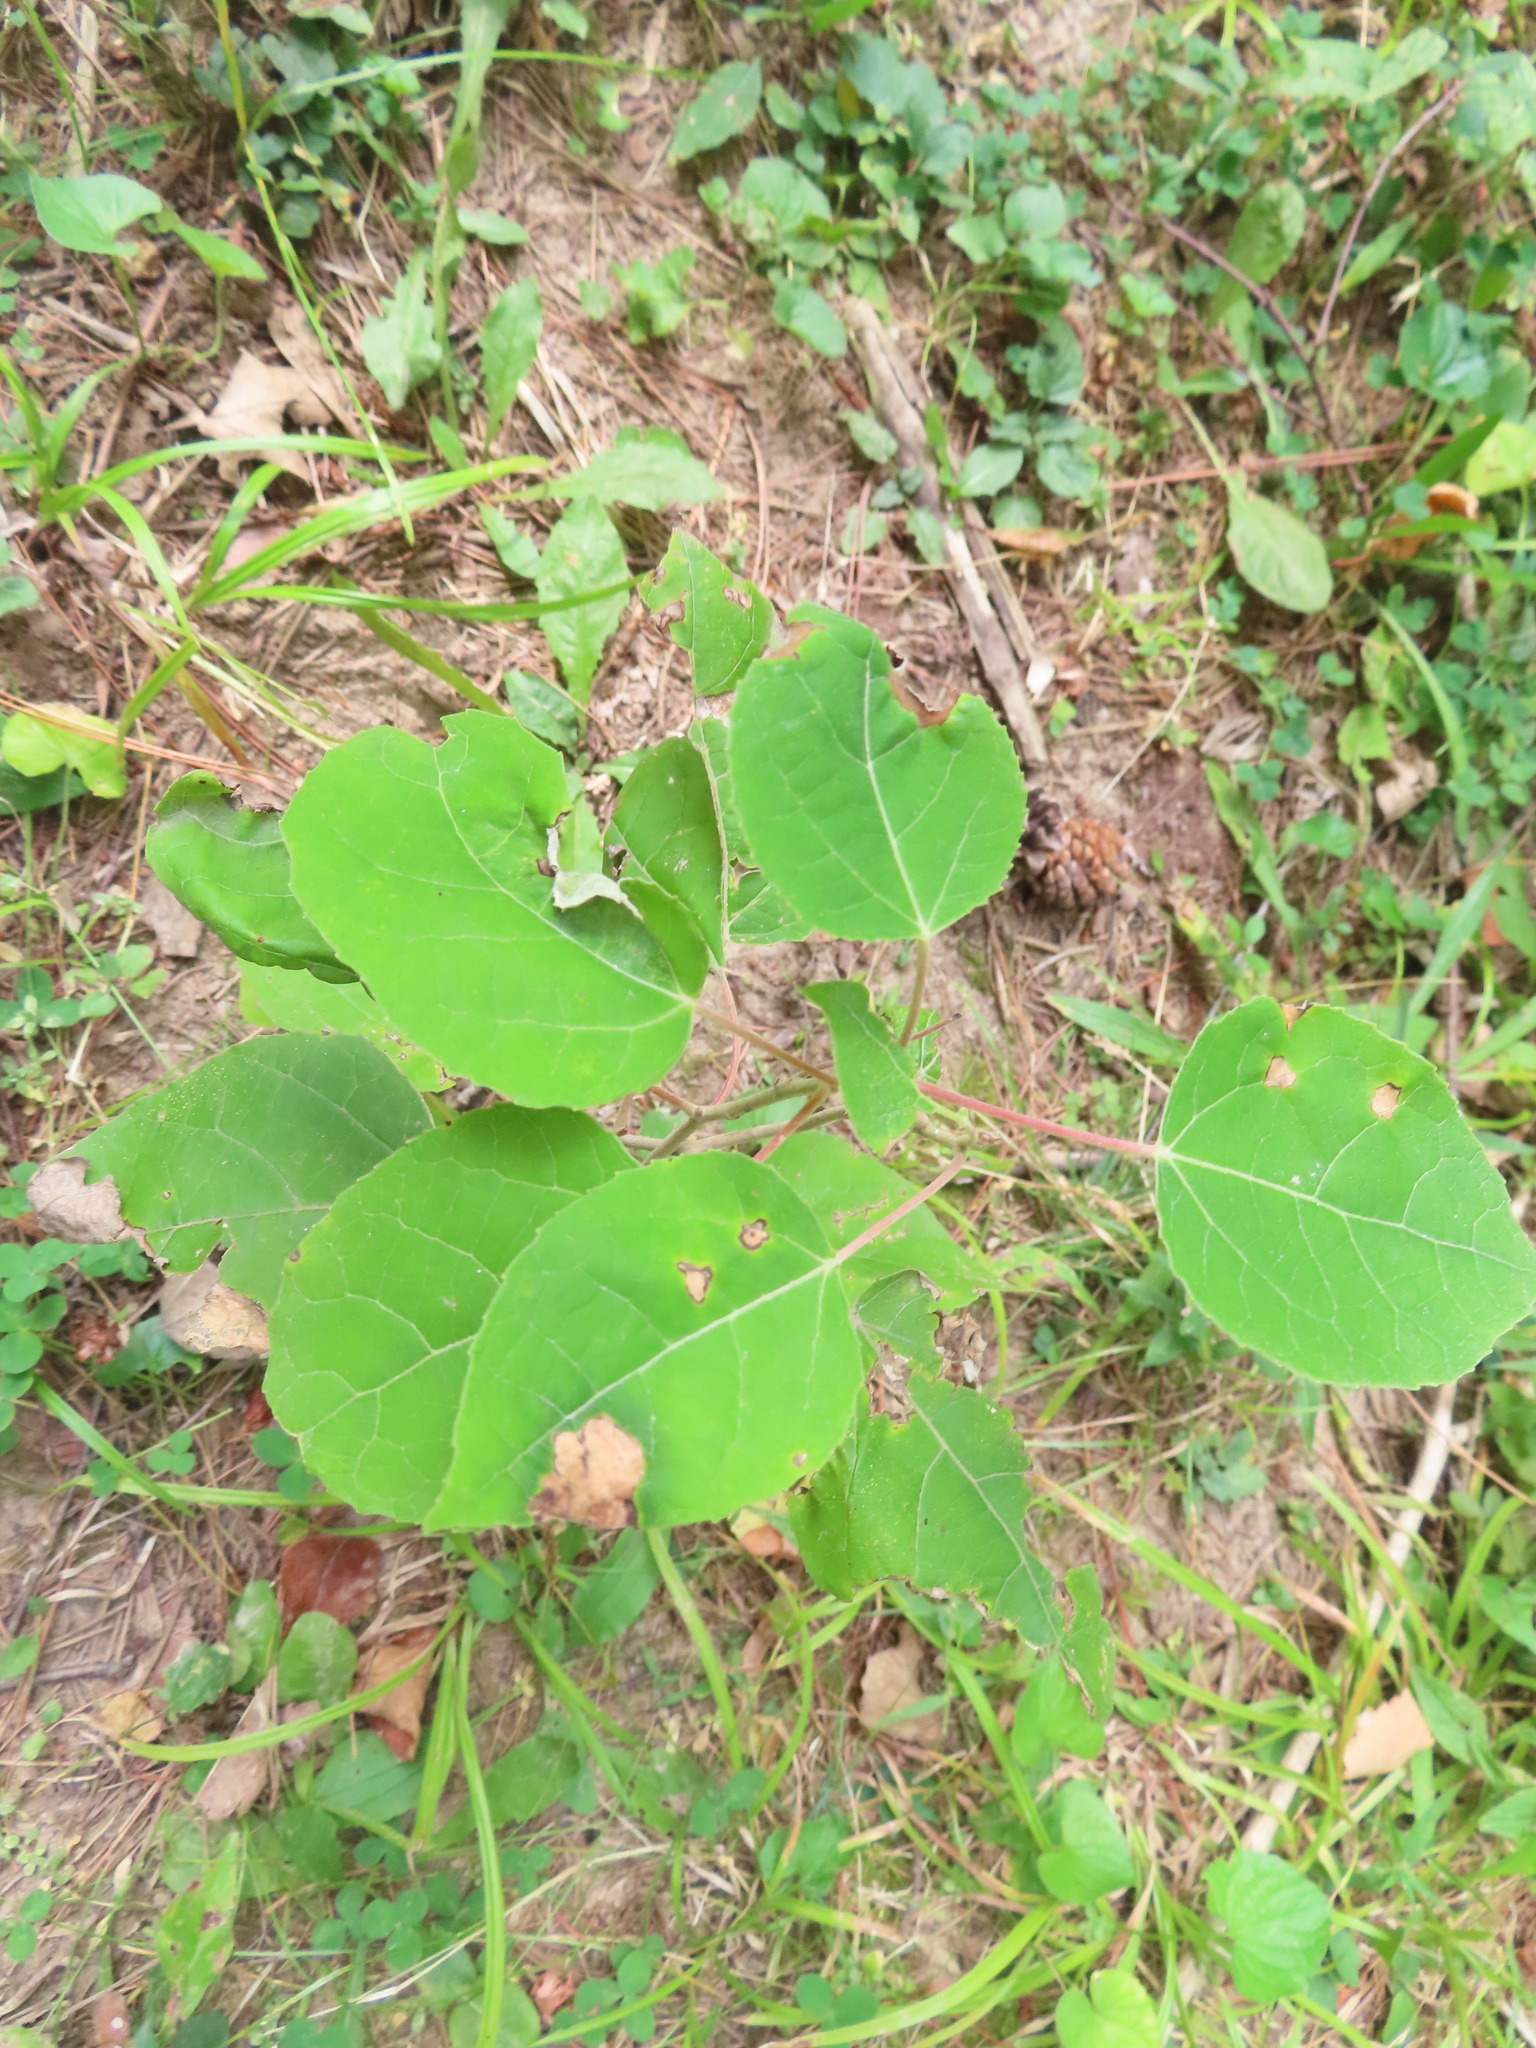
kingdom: Plantae
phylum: Tracheophyta
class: Magnoliopsida
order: Malpighiales
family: Salicaceae
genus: Populus
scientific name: Populus grandidentata
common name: Bigtooth aspen
